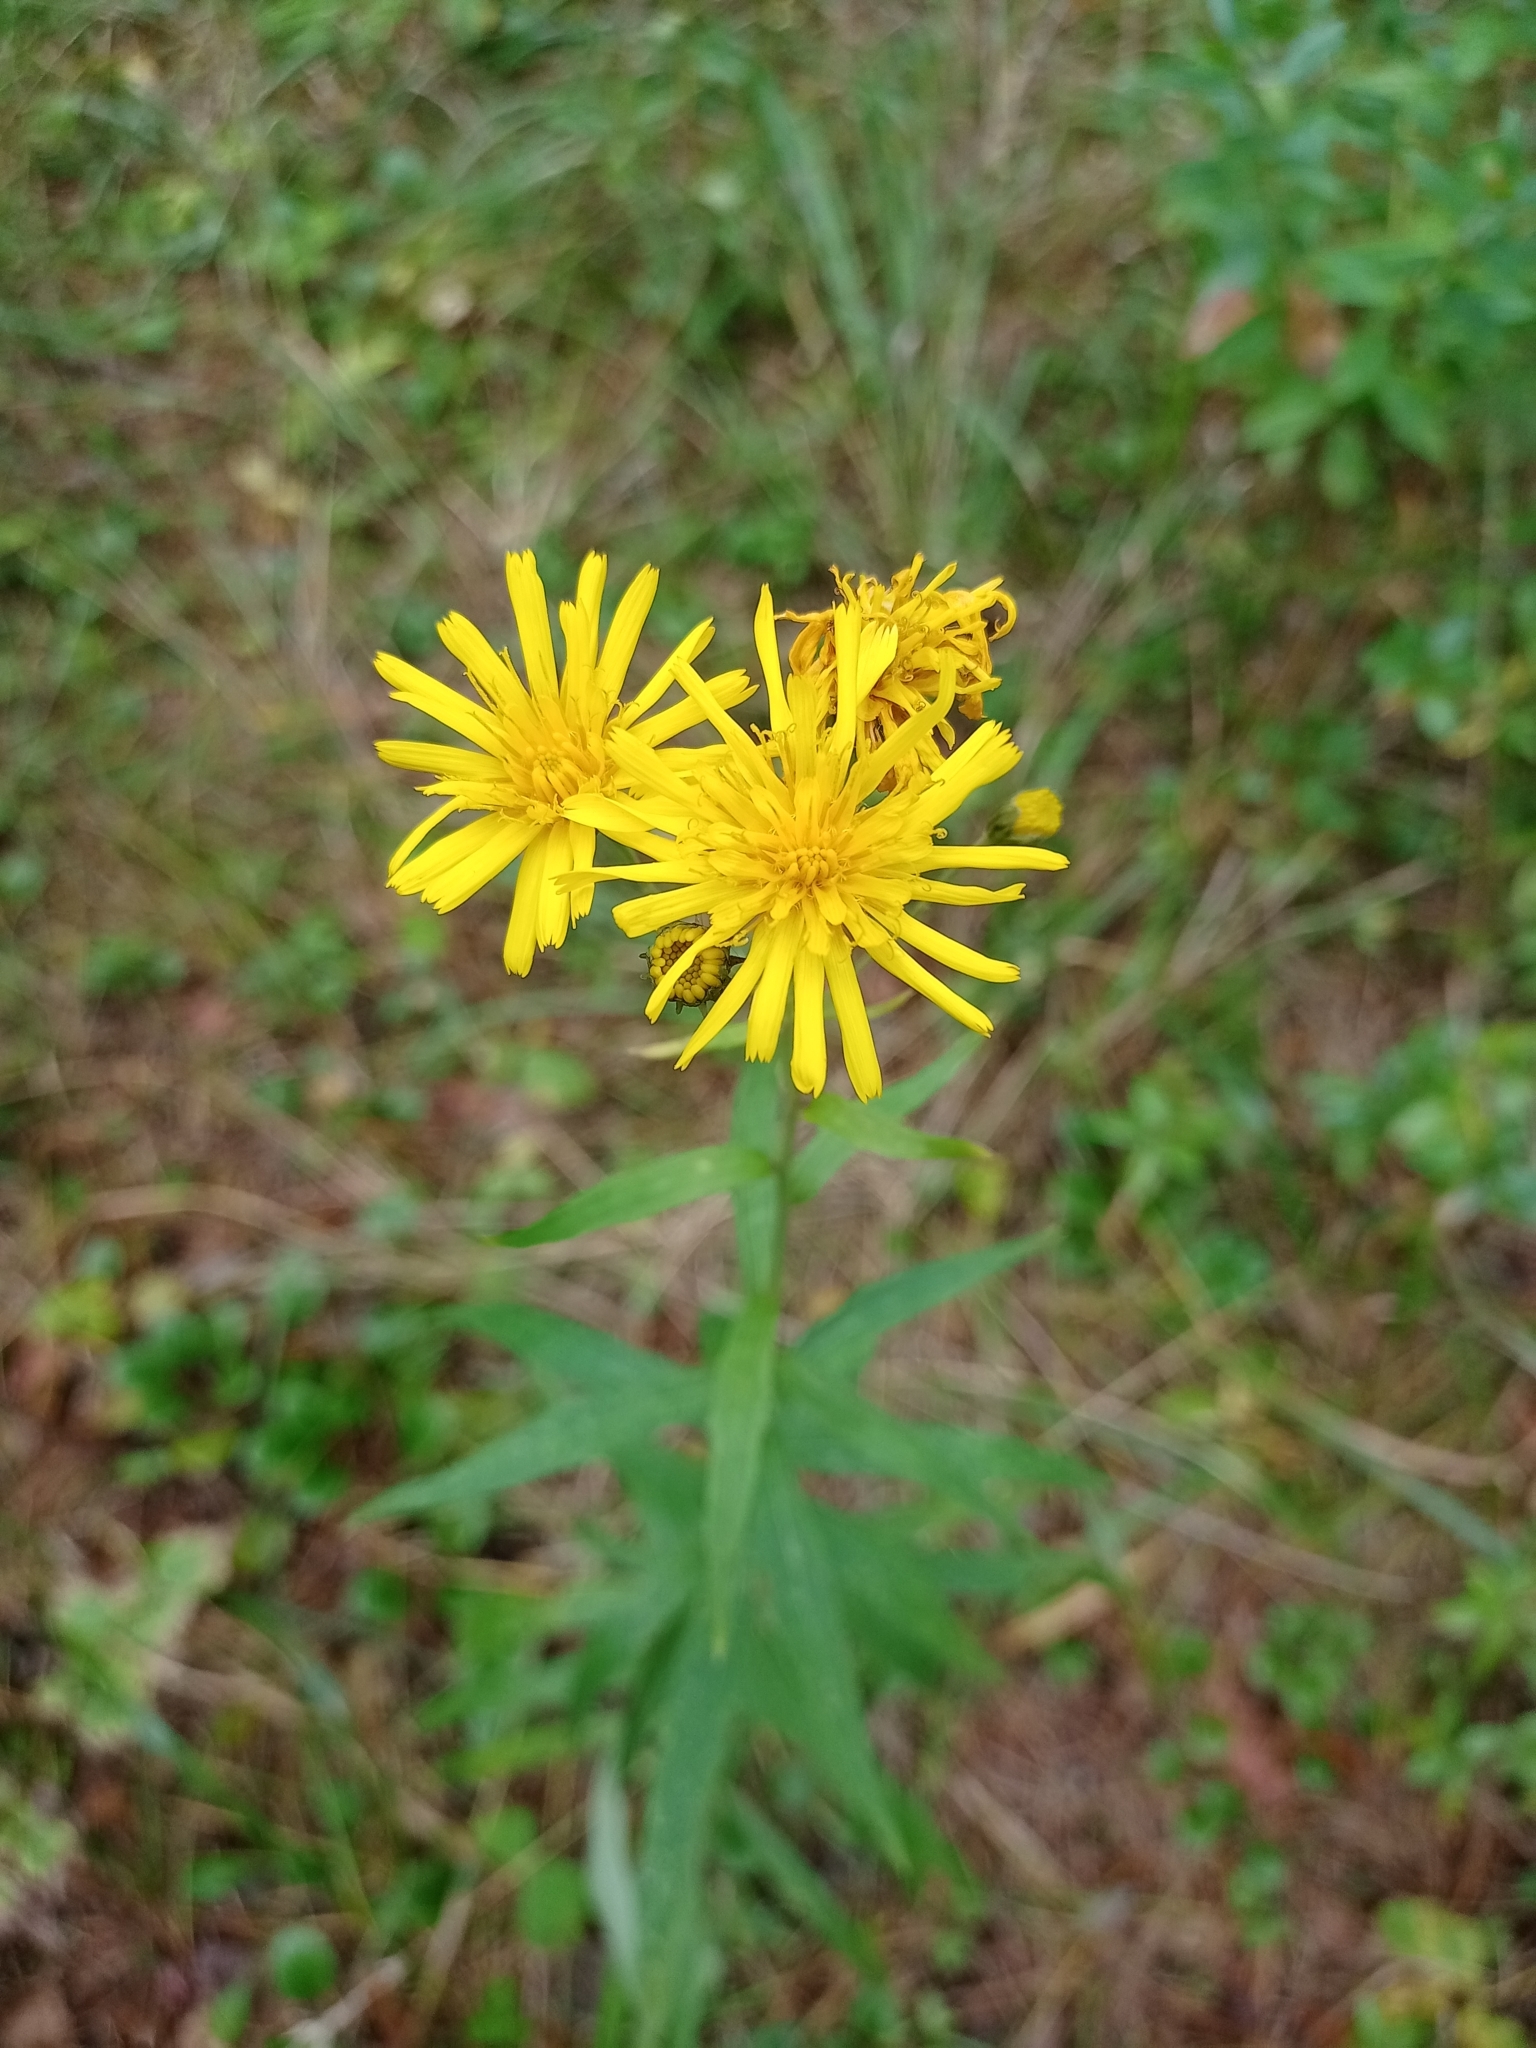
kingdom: Plantae
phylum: Tracheophyta
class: Magnoliopsida
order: Asterales
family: Asteraceae
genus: Hieracium
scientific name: Hieracium umbellatum
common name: Northern hawkweed
